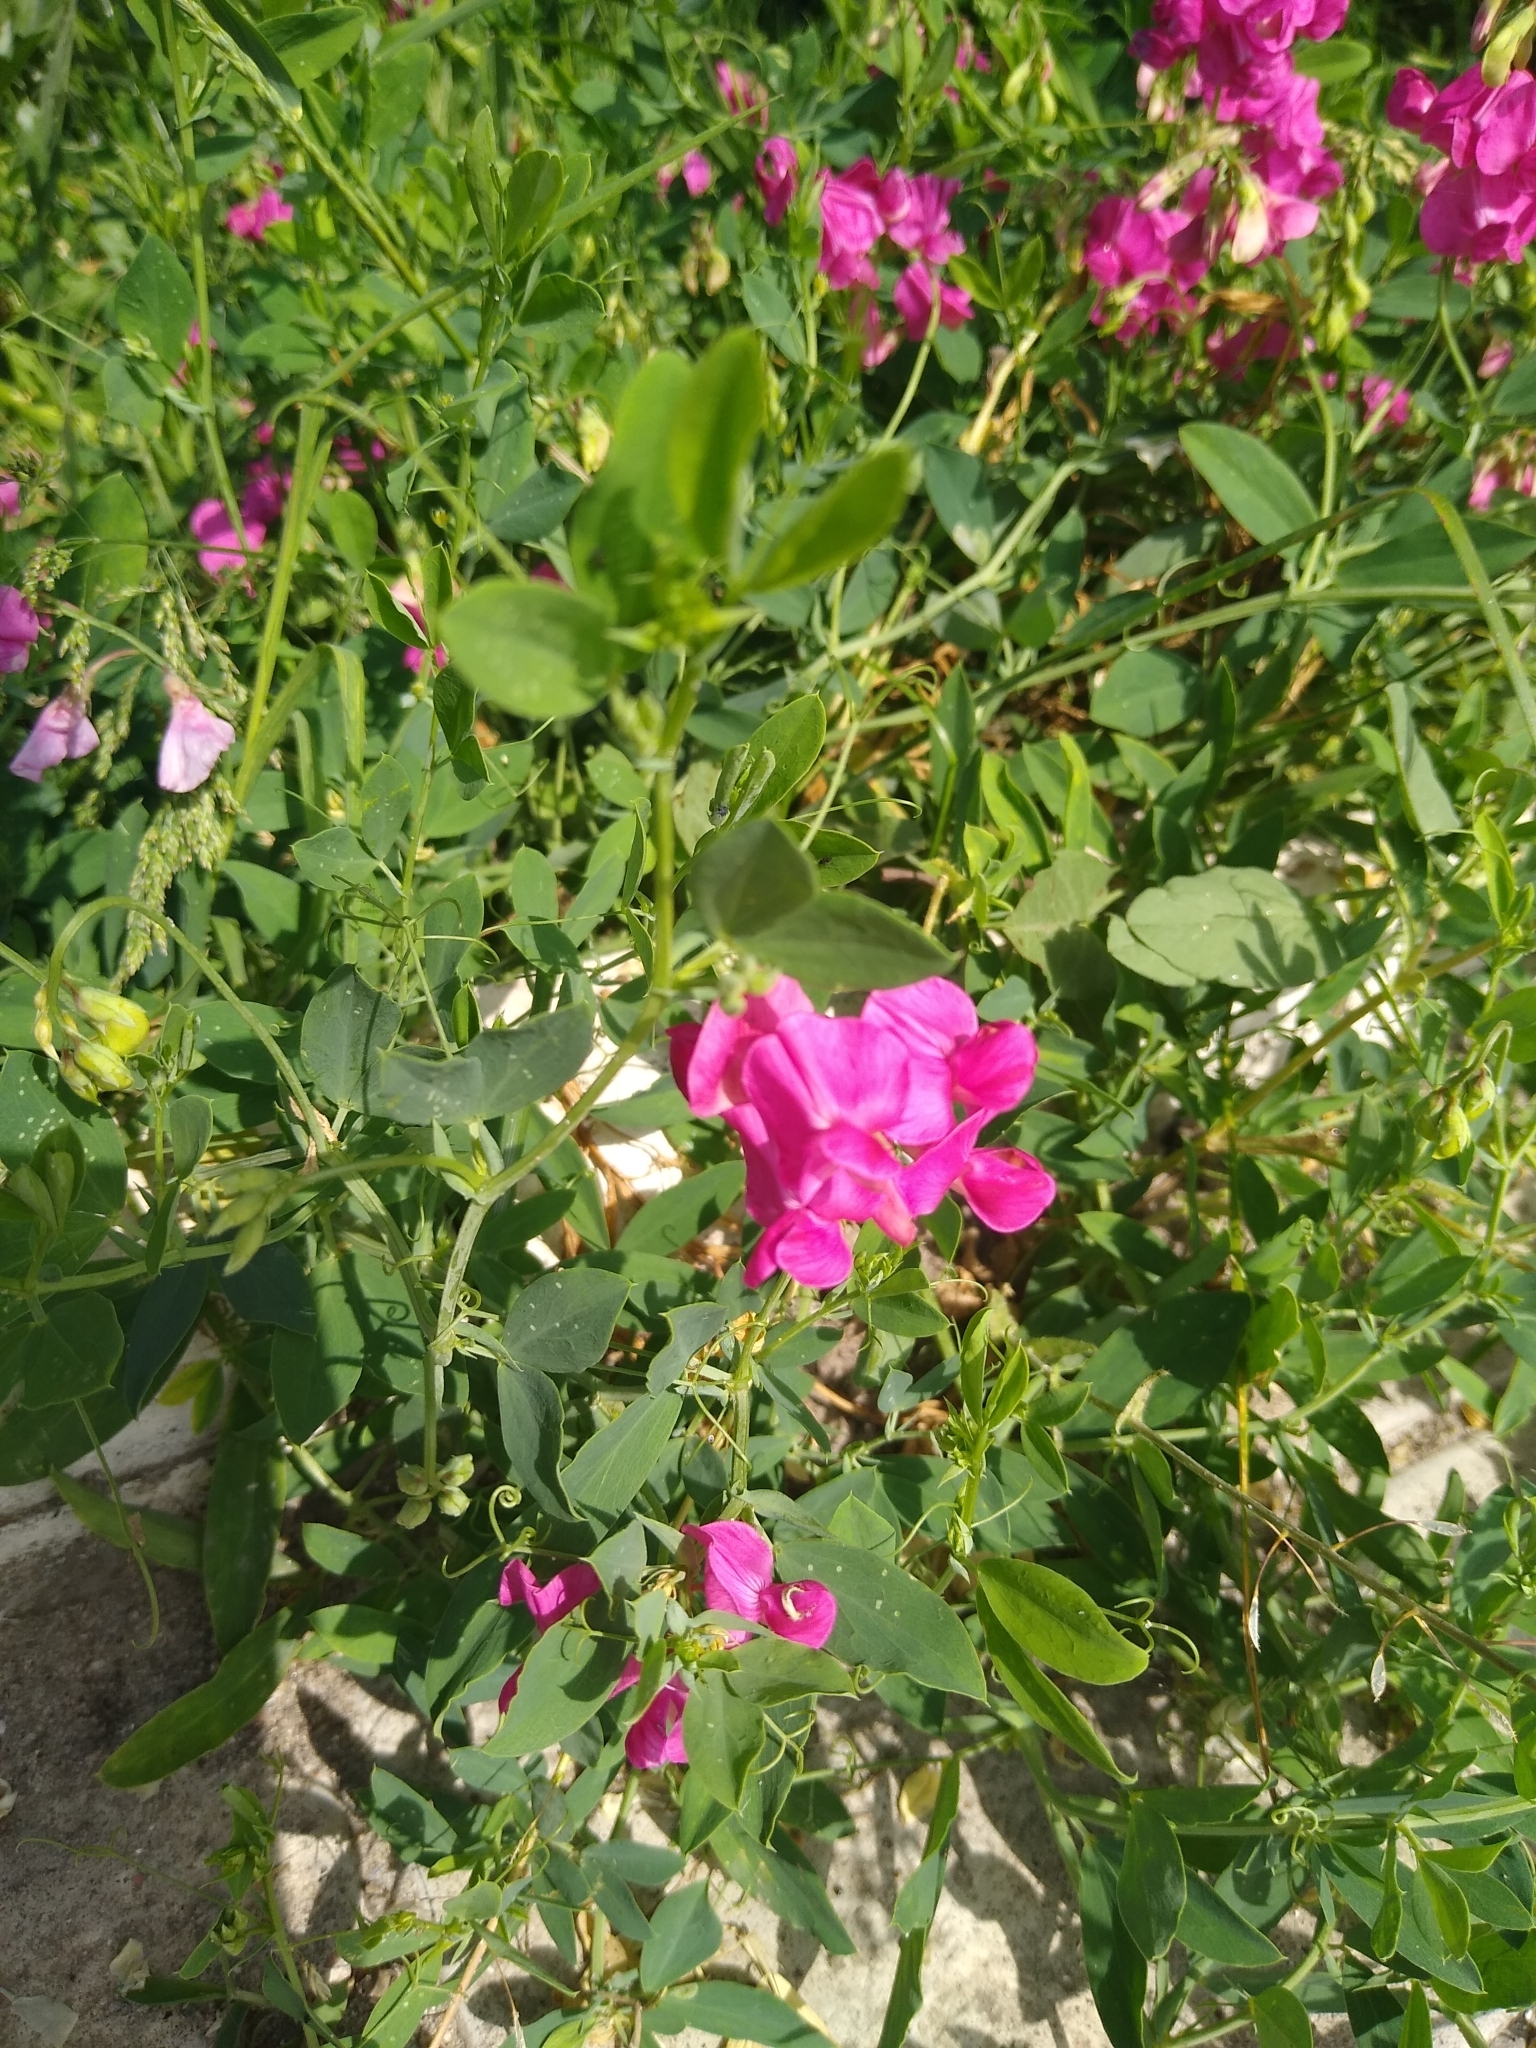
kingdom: Plantae
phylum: Tracheophyta
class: Magnoliopsida
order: Fabales
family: Fabaceae
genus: Lathyrus
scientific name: Lathyrus tuberosus
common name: Tuberous pea
